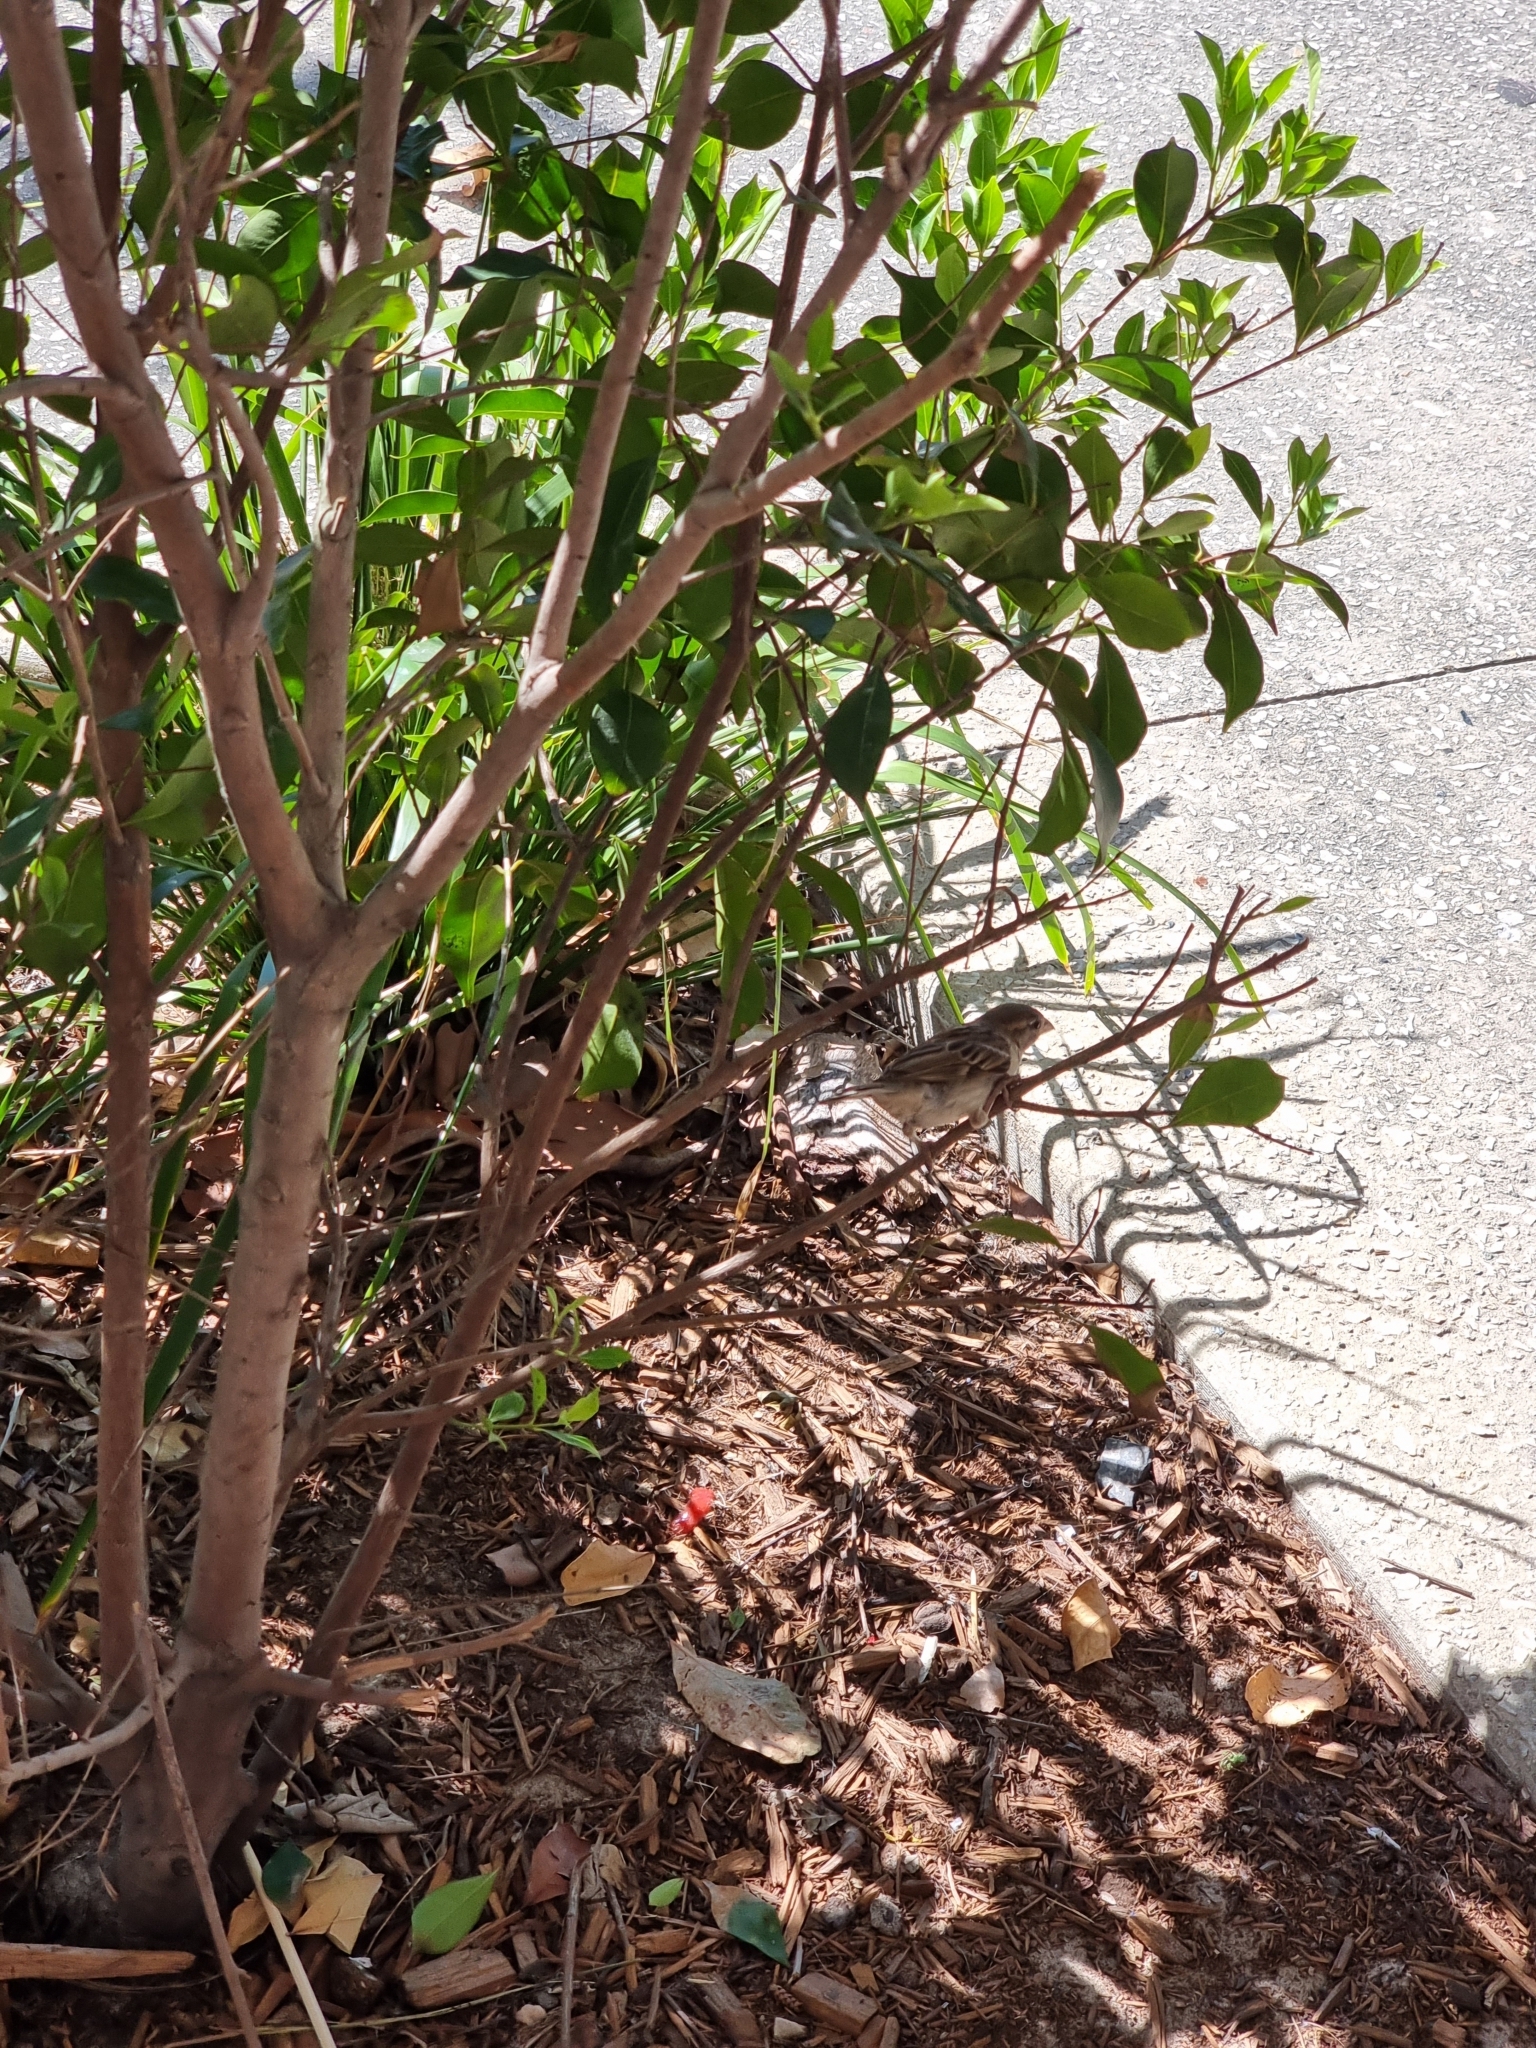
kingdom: Animalia
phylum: Chordata
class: Aves
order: Passeriformes
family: Passeridae
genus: Passer
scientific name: Passer domesticus
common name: House sparrow
